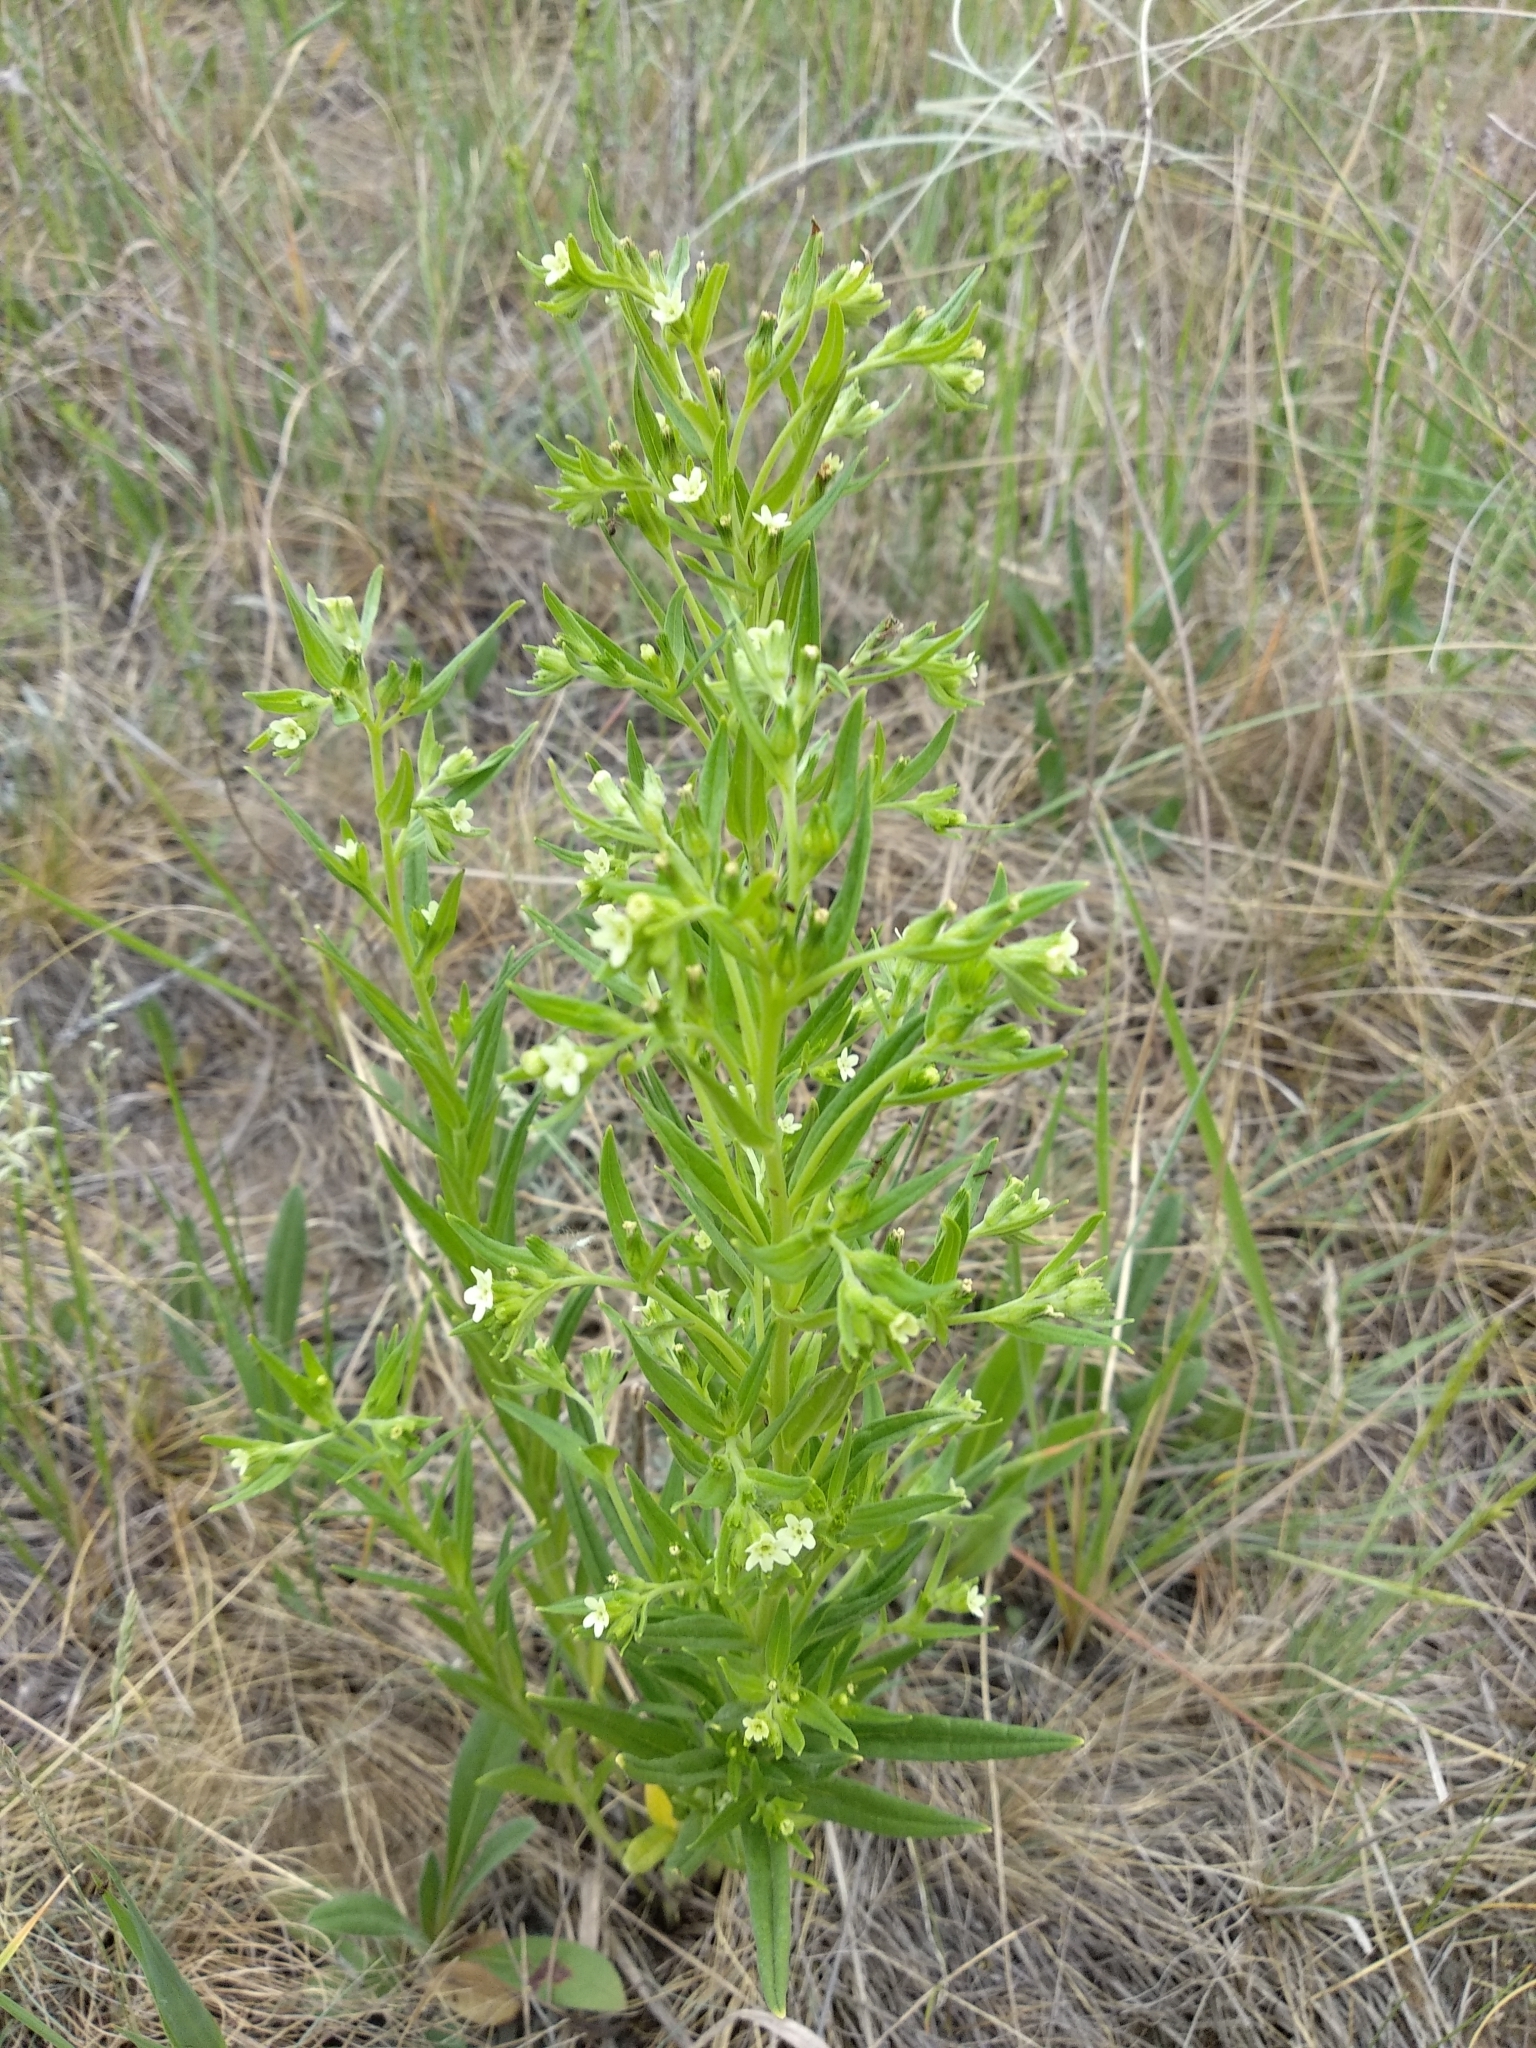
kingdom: Plantae
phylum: Tracheophyta
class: Magnoliopsida
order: Boraginales
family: Boraginaceae
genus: Lithospermum
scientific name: Lithospermum officinale
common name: Common gromwell
